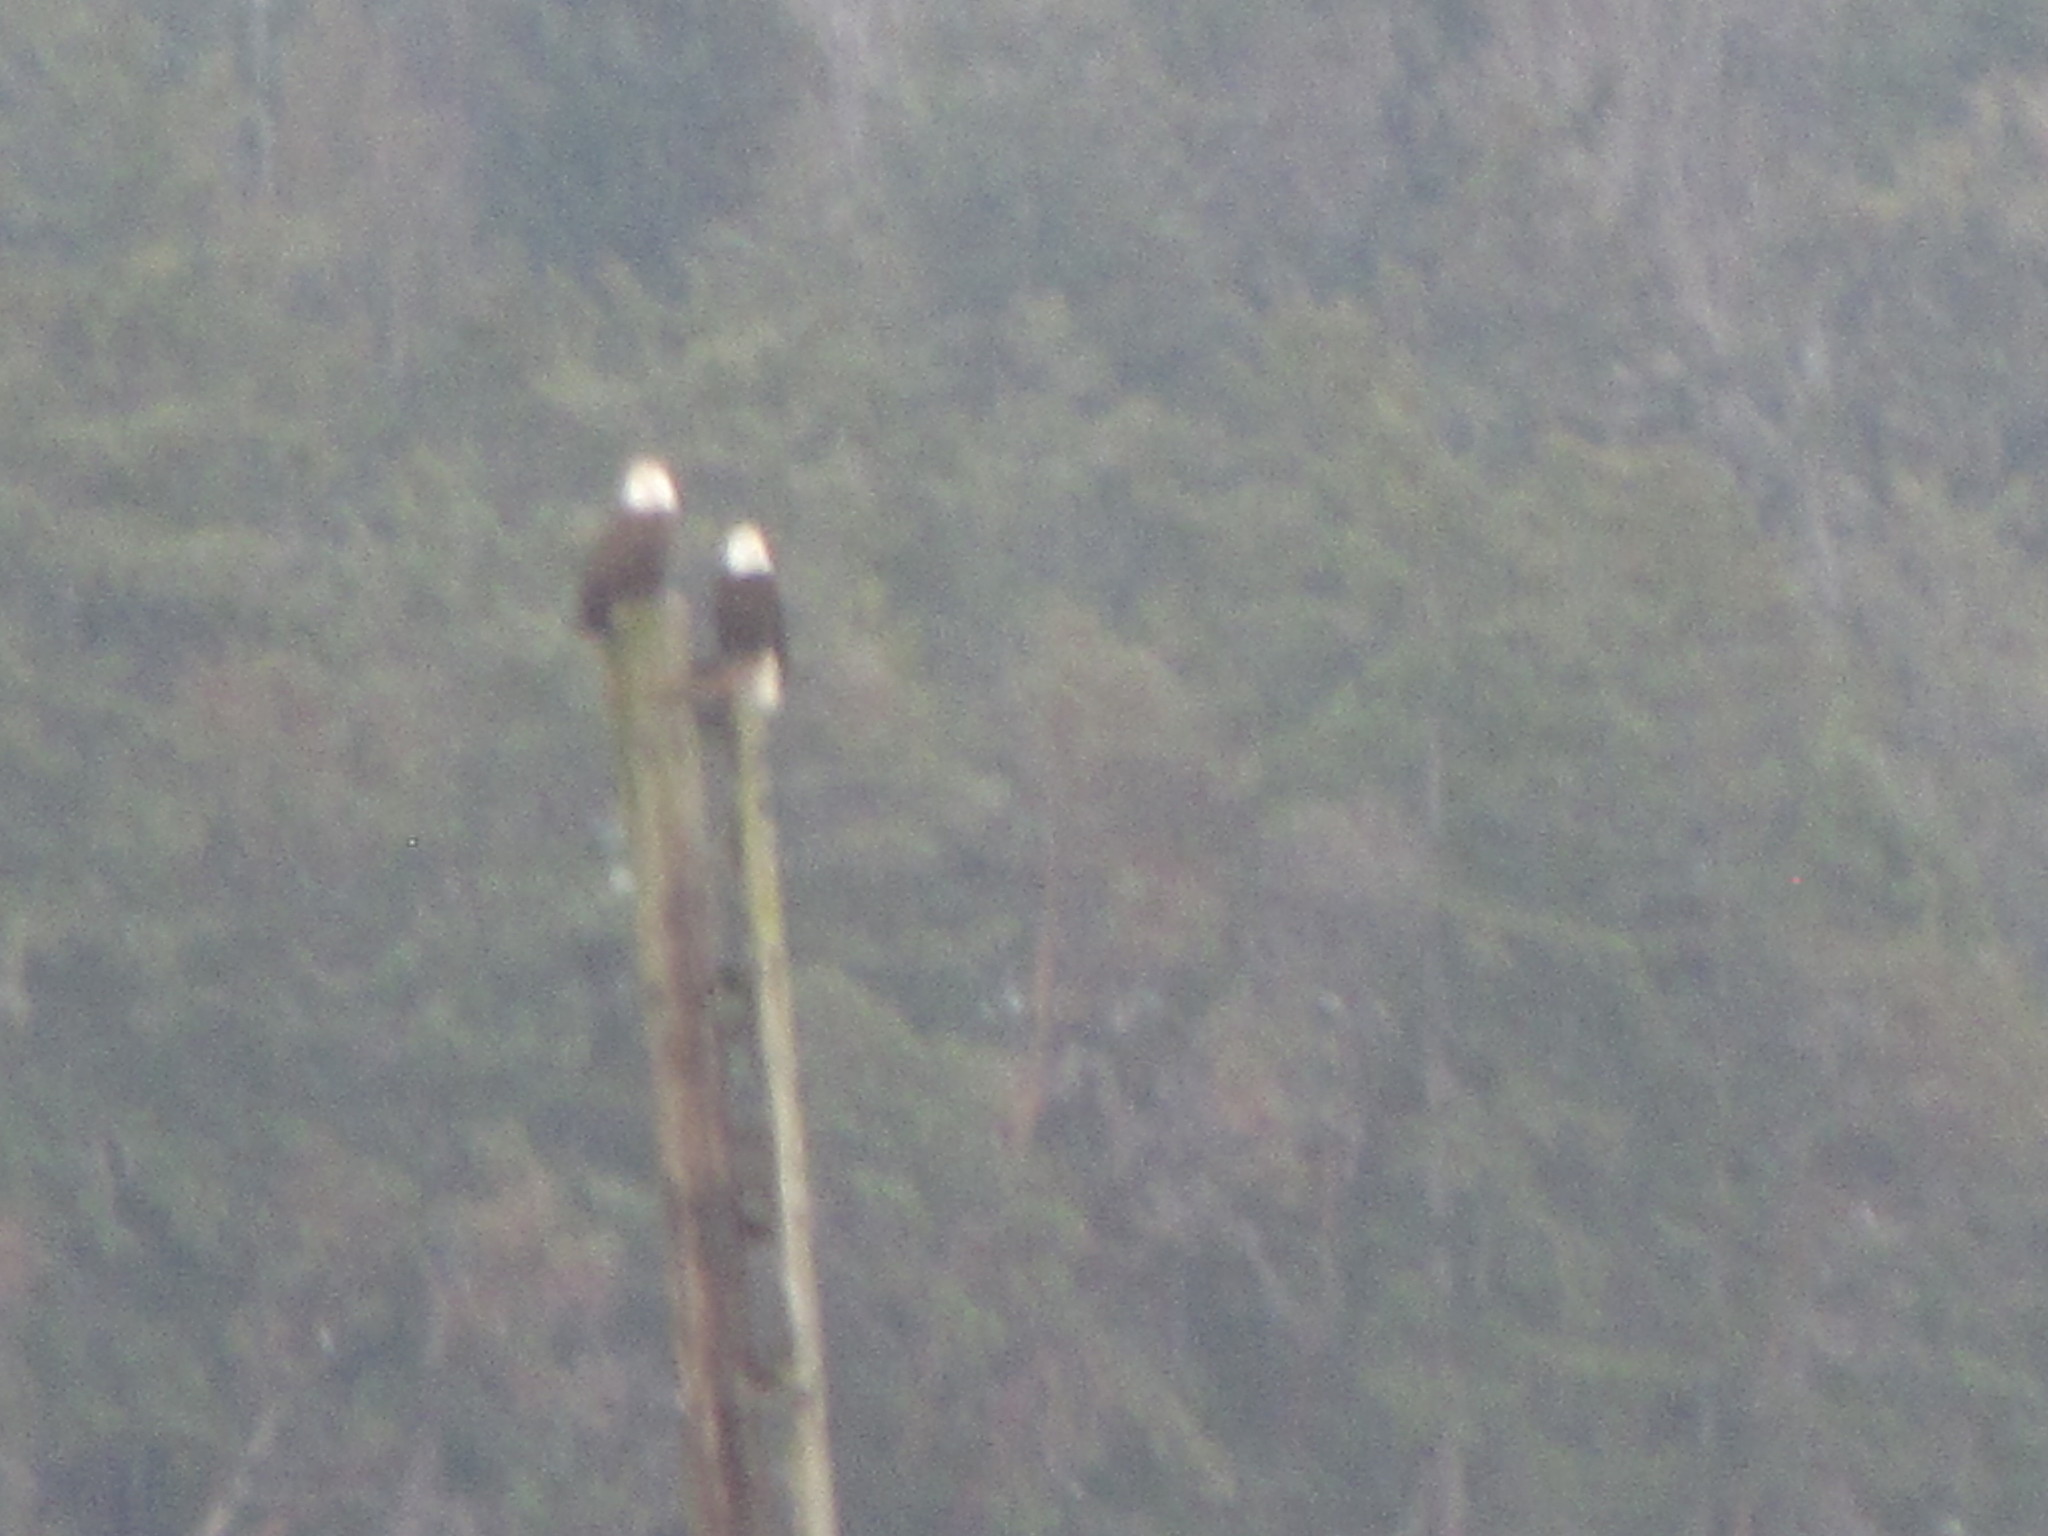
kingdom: Animalia
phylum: Chordata
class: Aves
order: Accipitriformes
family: Accipitridae
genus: Haliaeetus
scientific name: Haliaeetus leucocephalus
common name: Bald eagle
